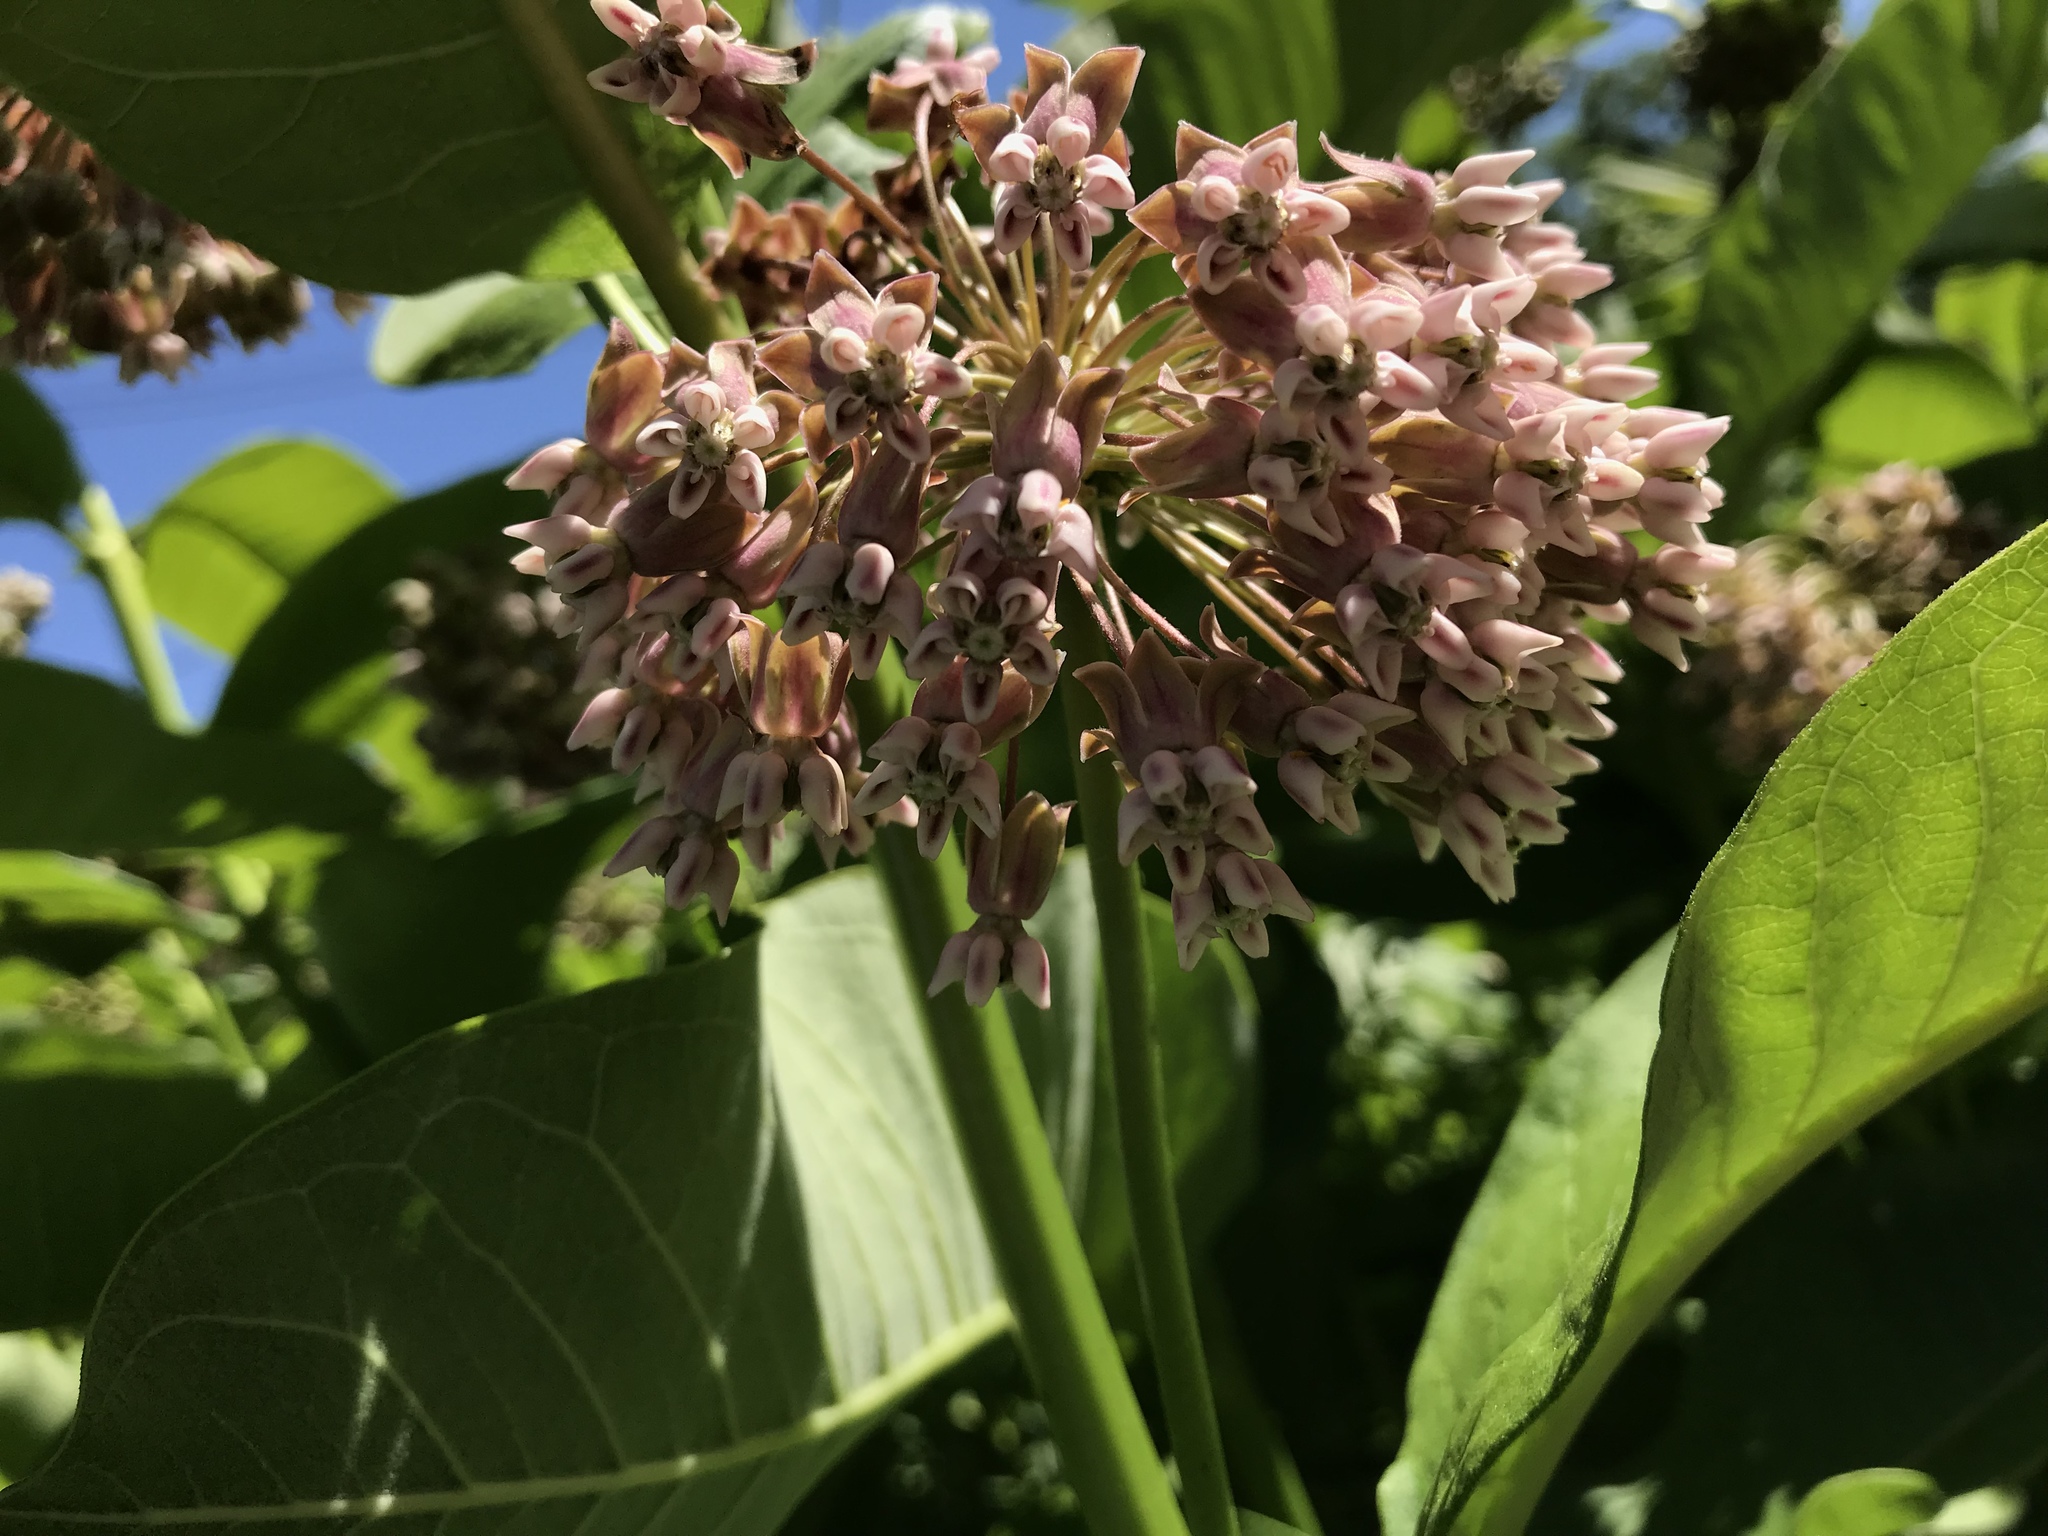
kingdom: Plantae
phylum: Tracheophyta
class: Magnoliopsida
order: Gentianales
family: Apocynaceae
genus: Asclepias
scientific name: Asclepias syriaca
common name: Common milkweed
